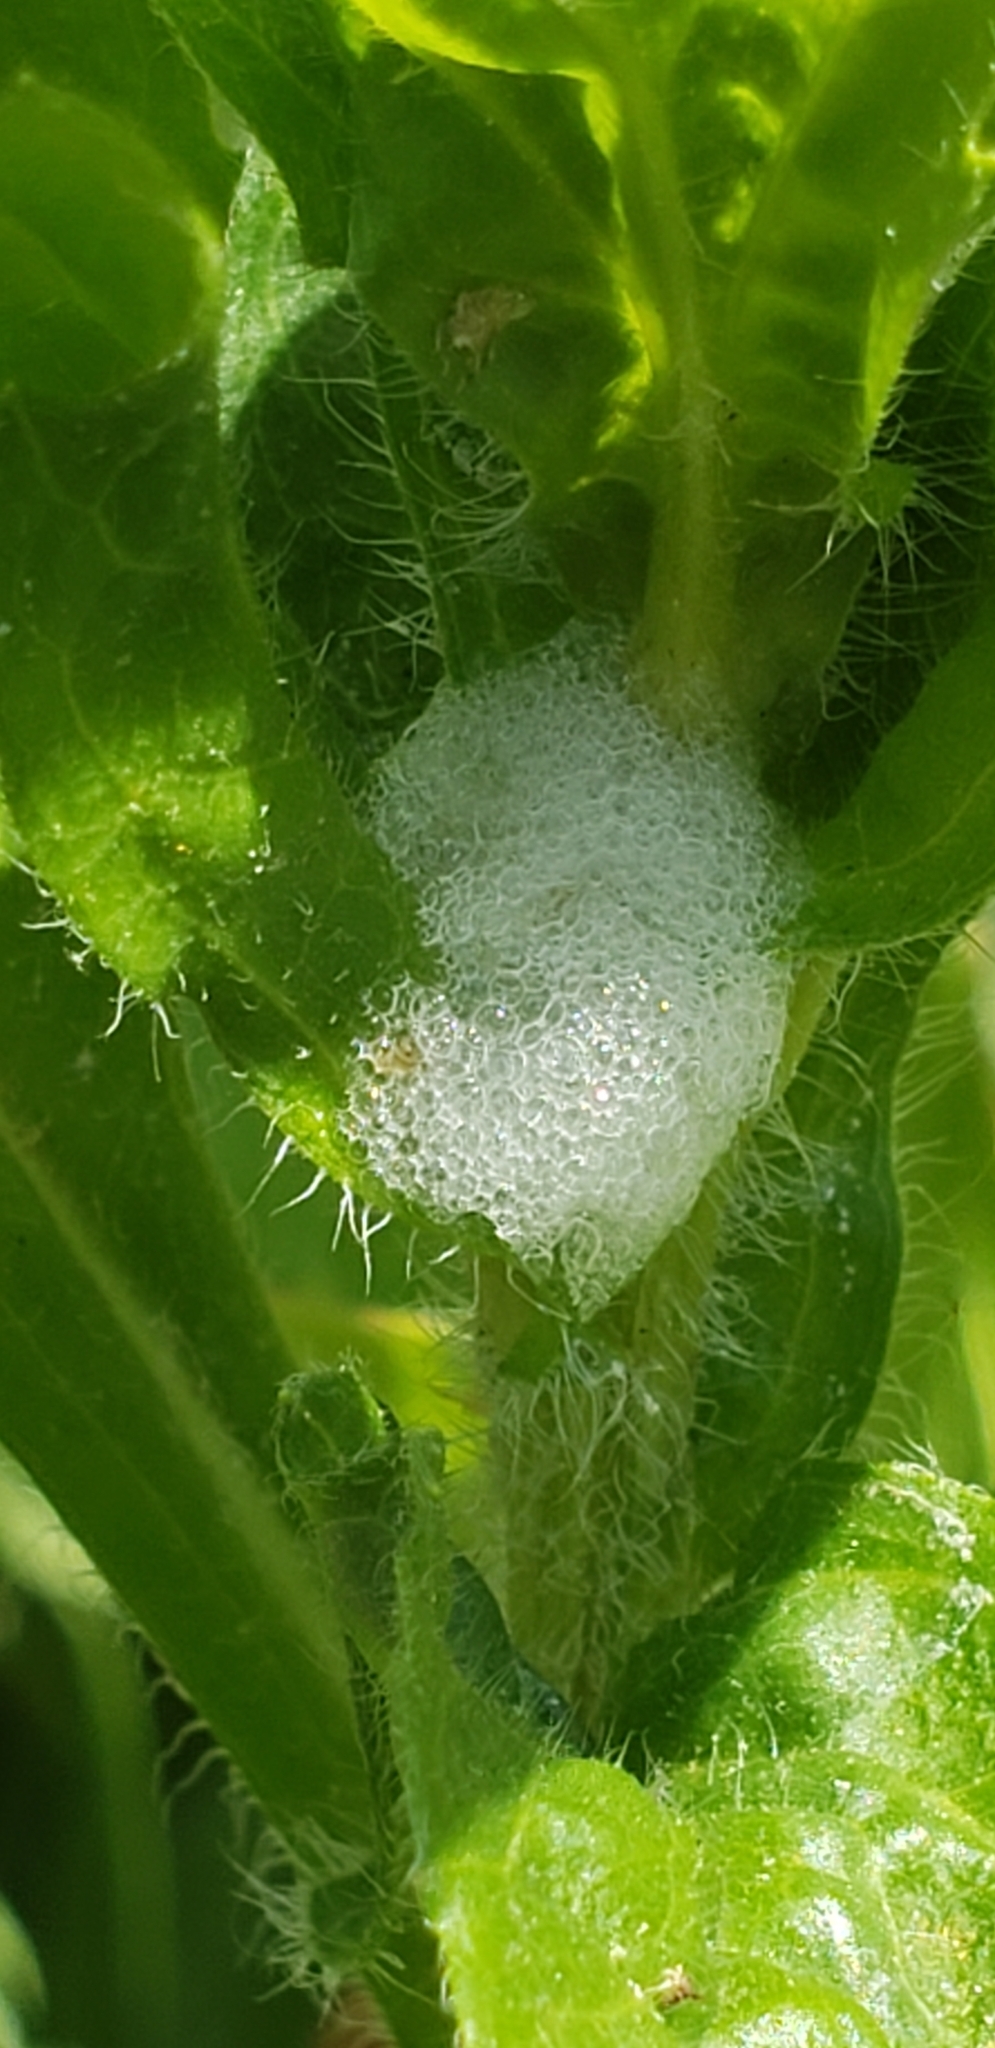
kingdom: Animalia
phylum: Arthropoda
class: Insecta
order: Hemiptera
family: Aphrophoridae
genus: Philaenus
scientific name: Philaenus spumarius
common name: Meadow spittlebug
